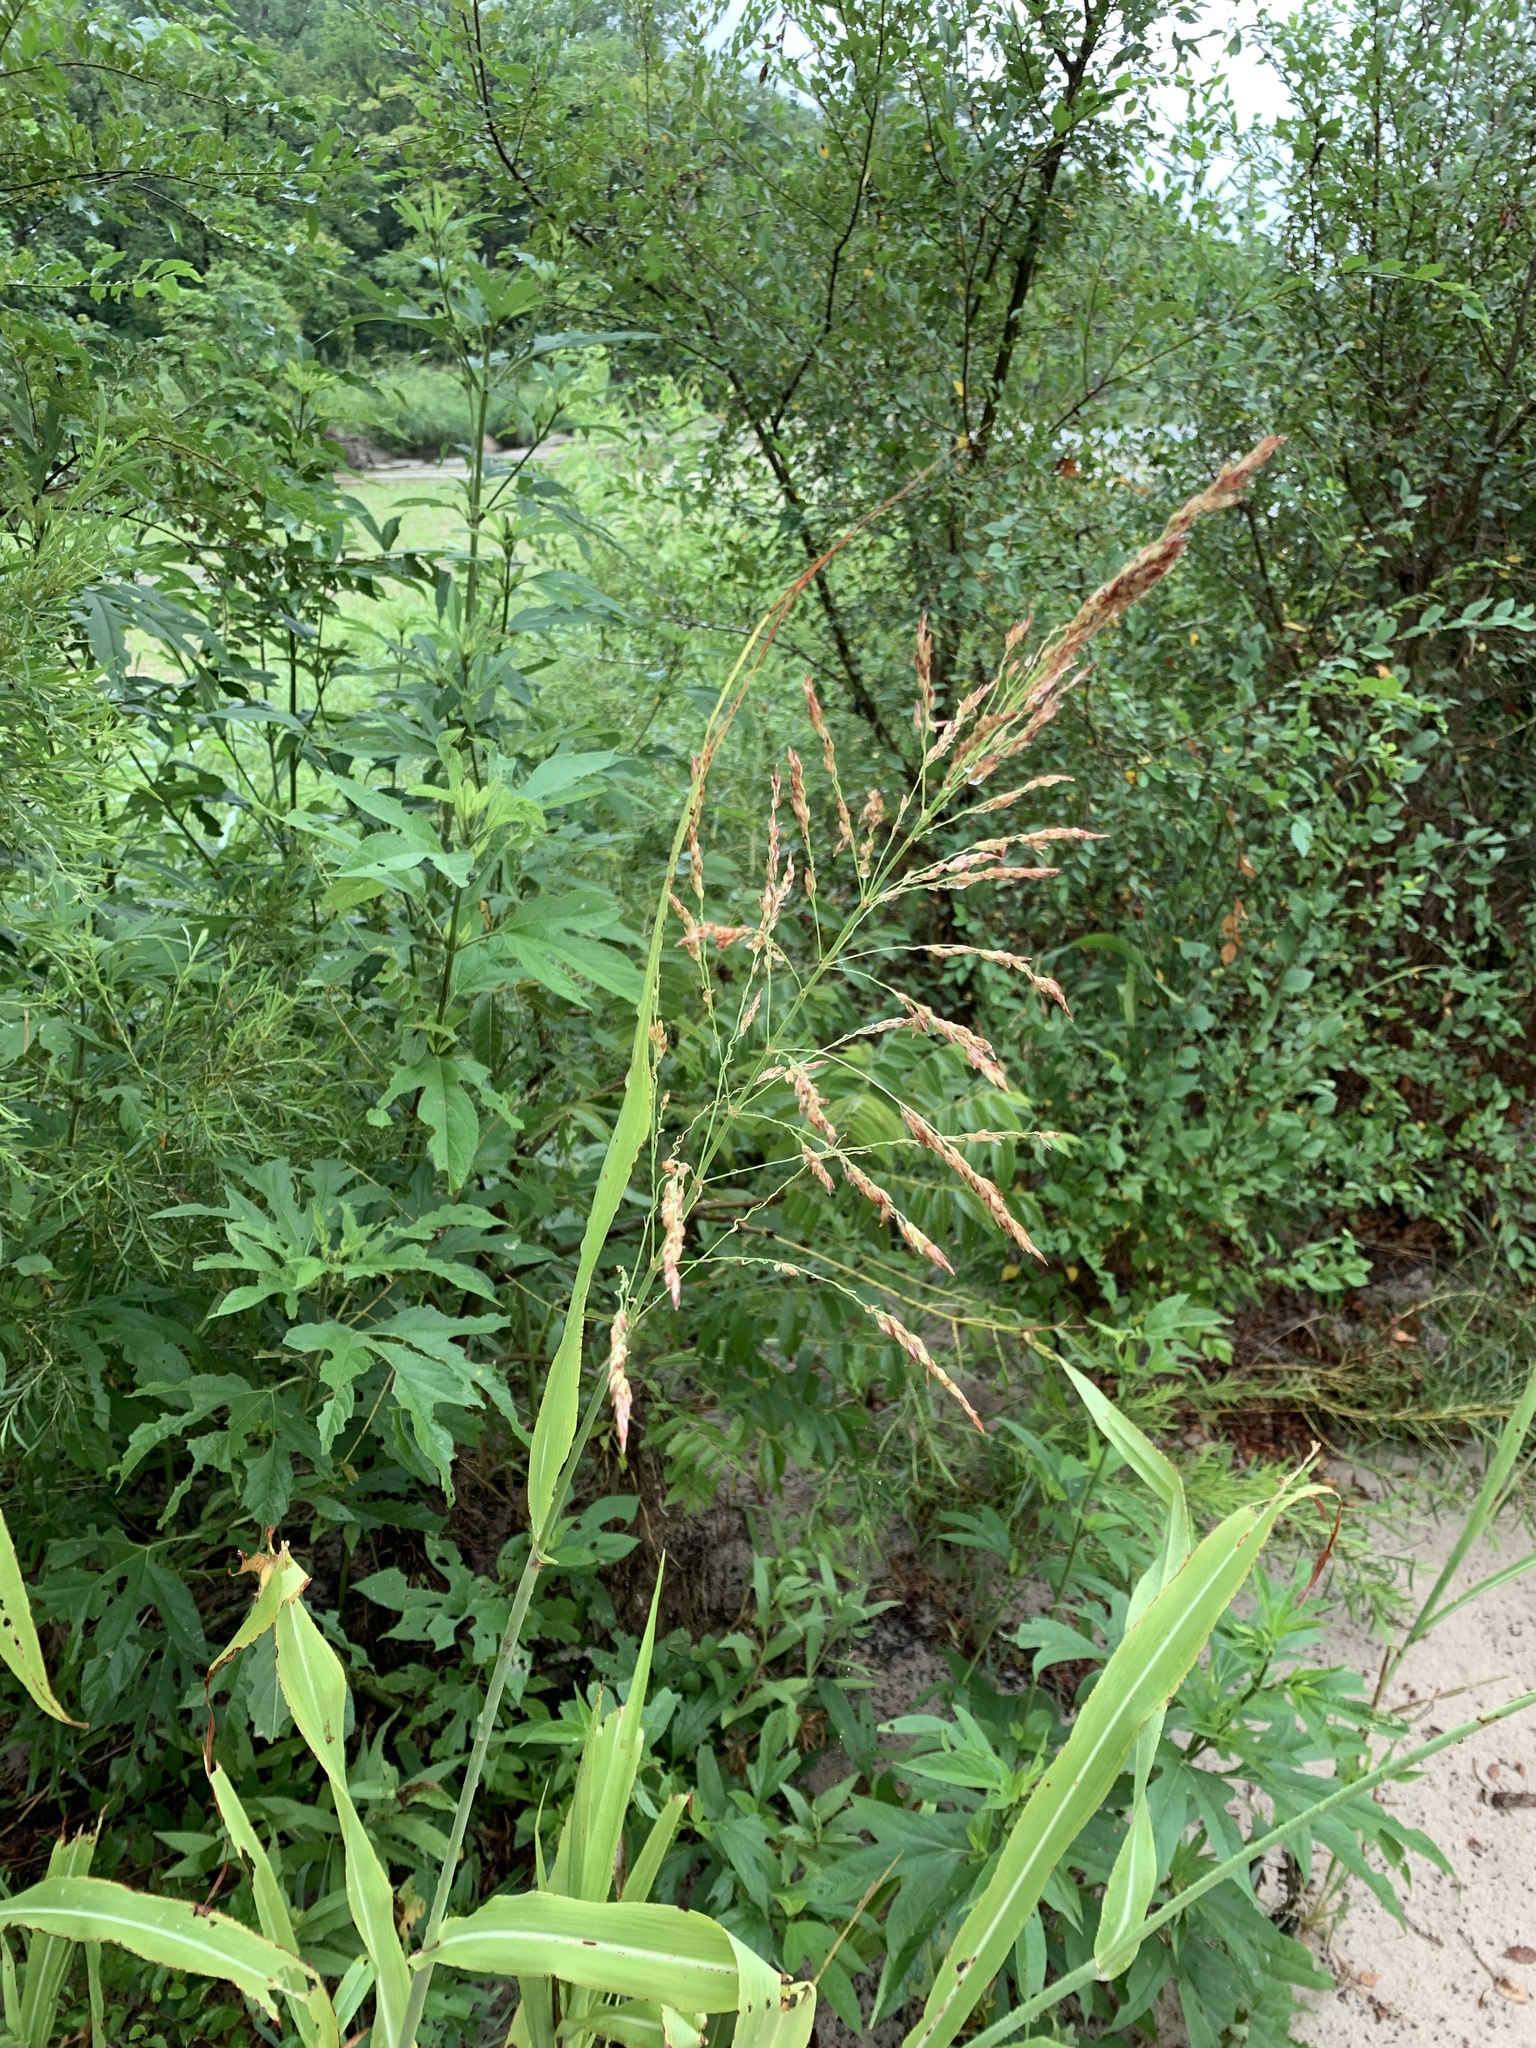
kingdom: Plantae
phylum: Tracheophyta
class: Liliopsida
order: Poales
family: Poaceae
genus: Sorghum
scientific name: Sorghum halepense
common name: Johnson-grass
